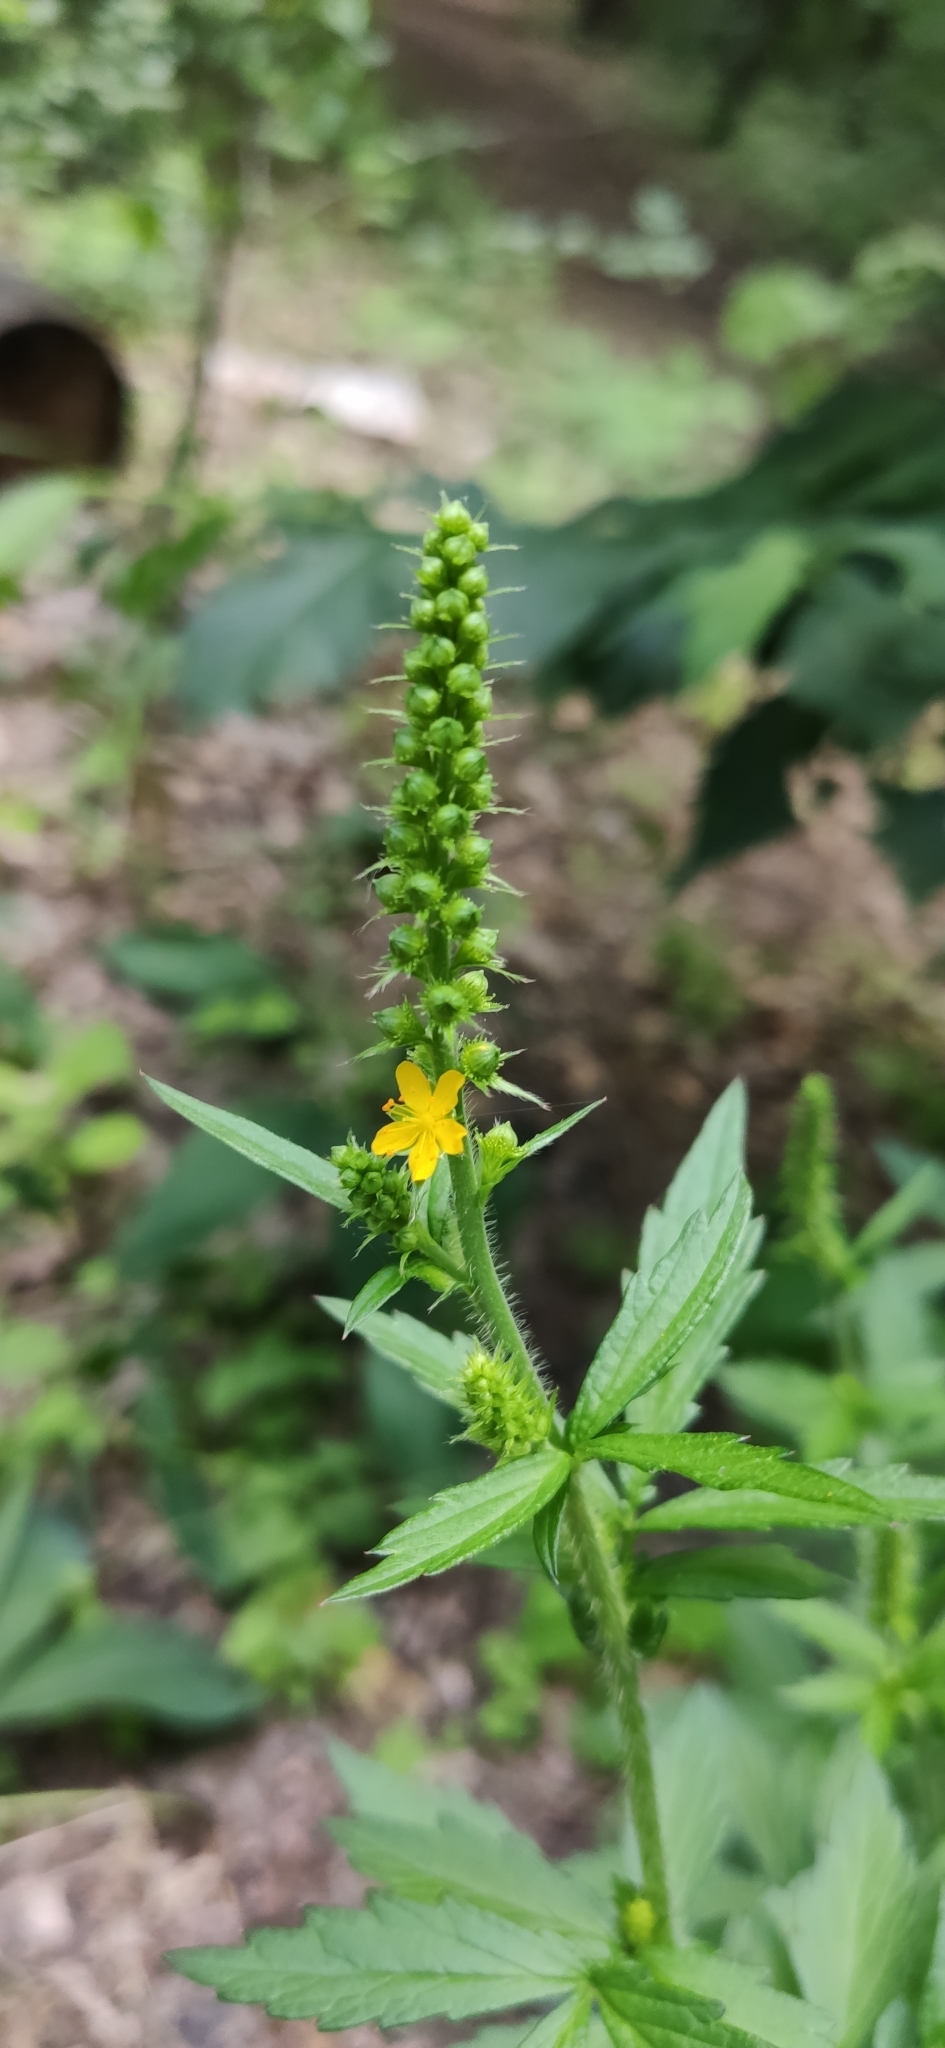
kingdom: Plantae
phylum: Tracheophyta
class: Magnoliopsida
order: Rosales
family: Rosaceae
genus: Agrimonia
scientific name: Agrimonia pilosa
